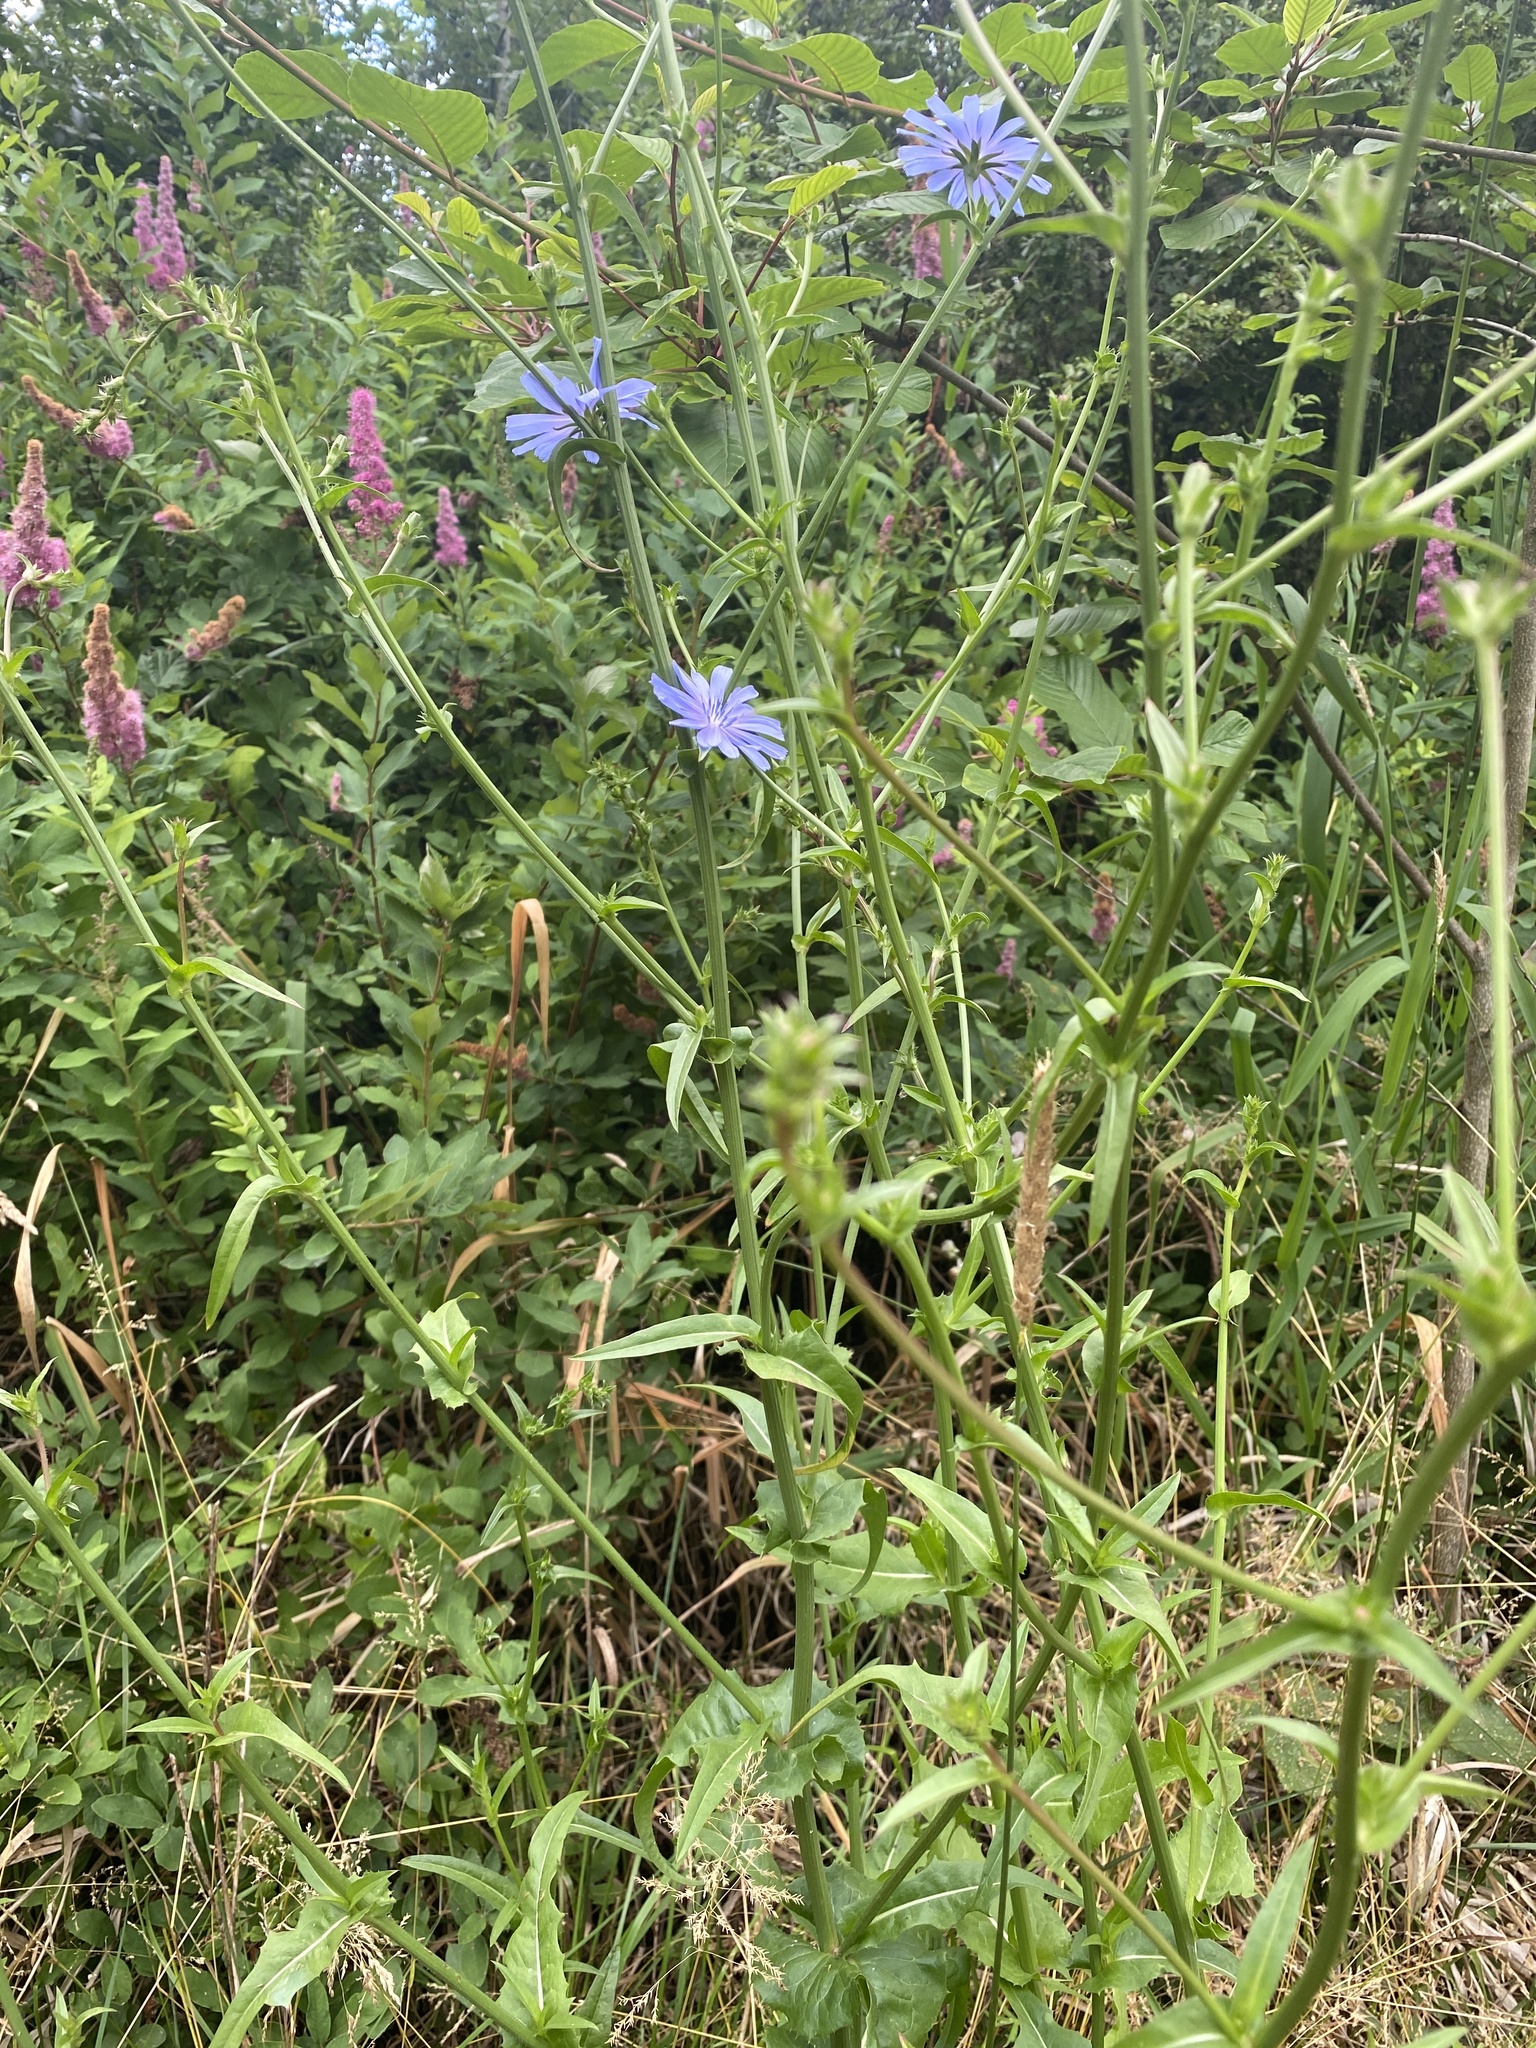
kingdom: Plantae
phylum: Tracheophyta
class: Magnoliopsida
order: Asterales
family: Asteraceae
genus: Cichorium
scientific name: Cichorium intybus
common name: Chicory
